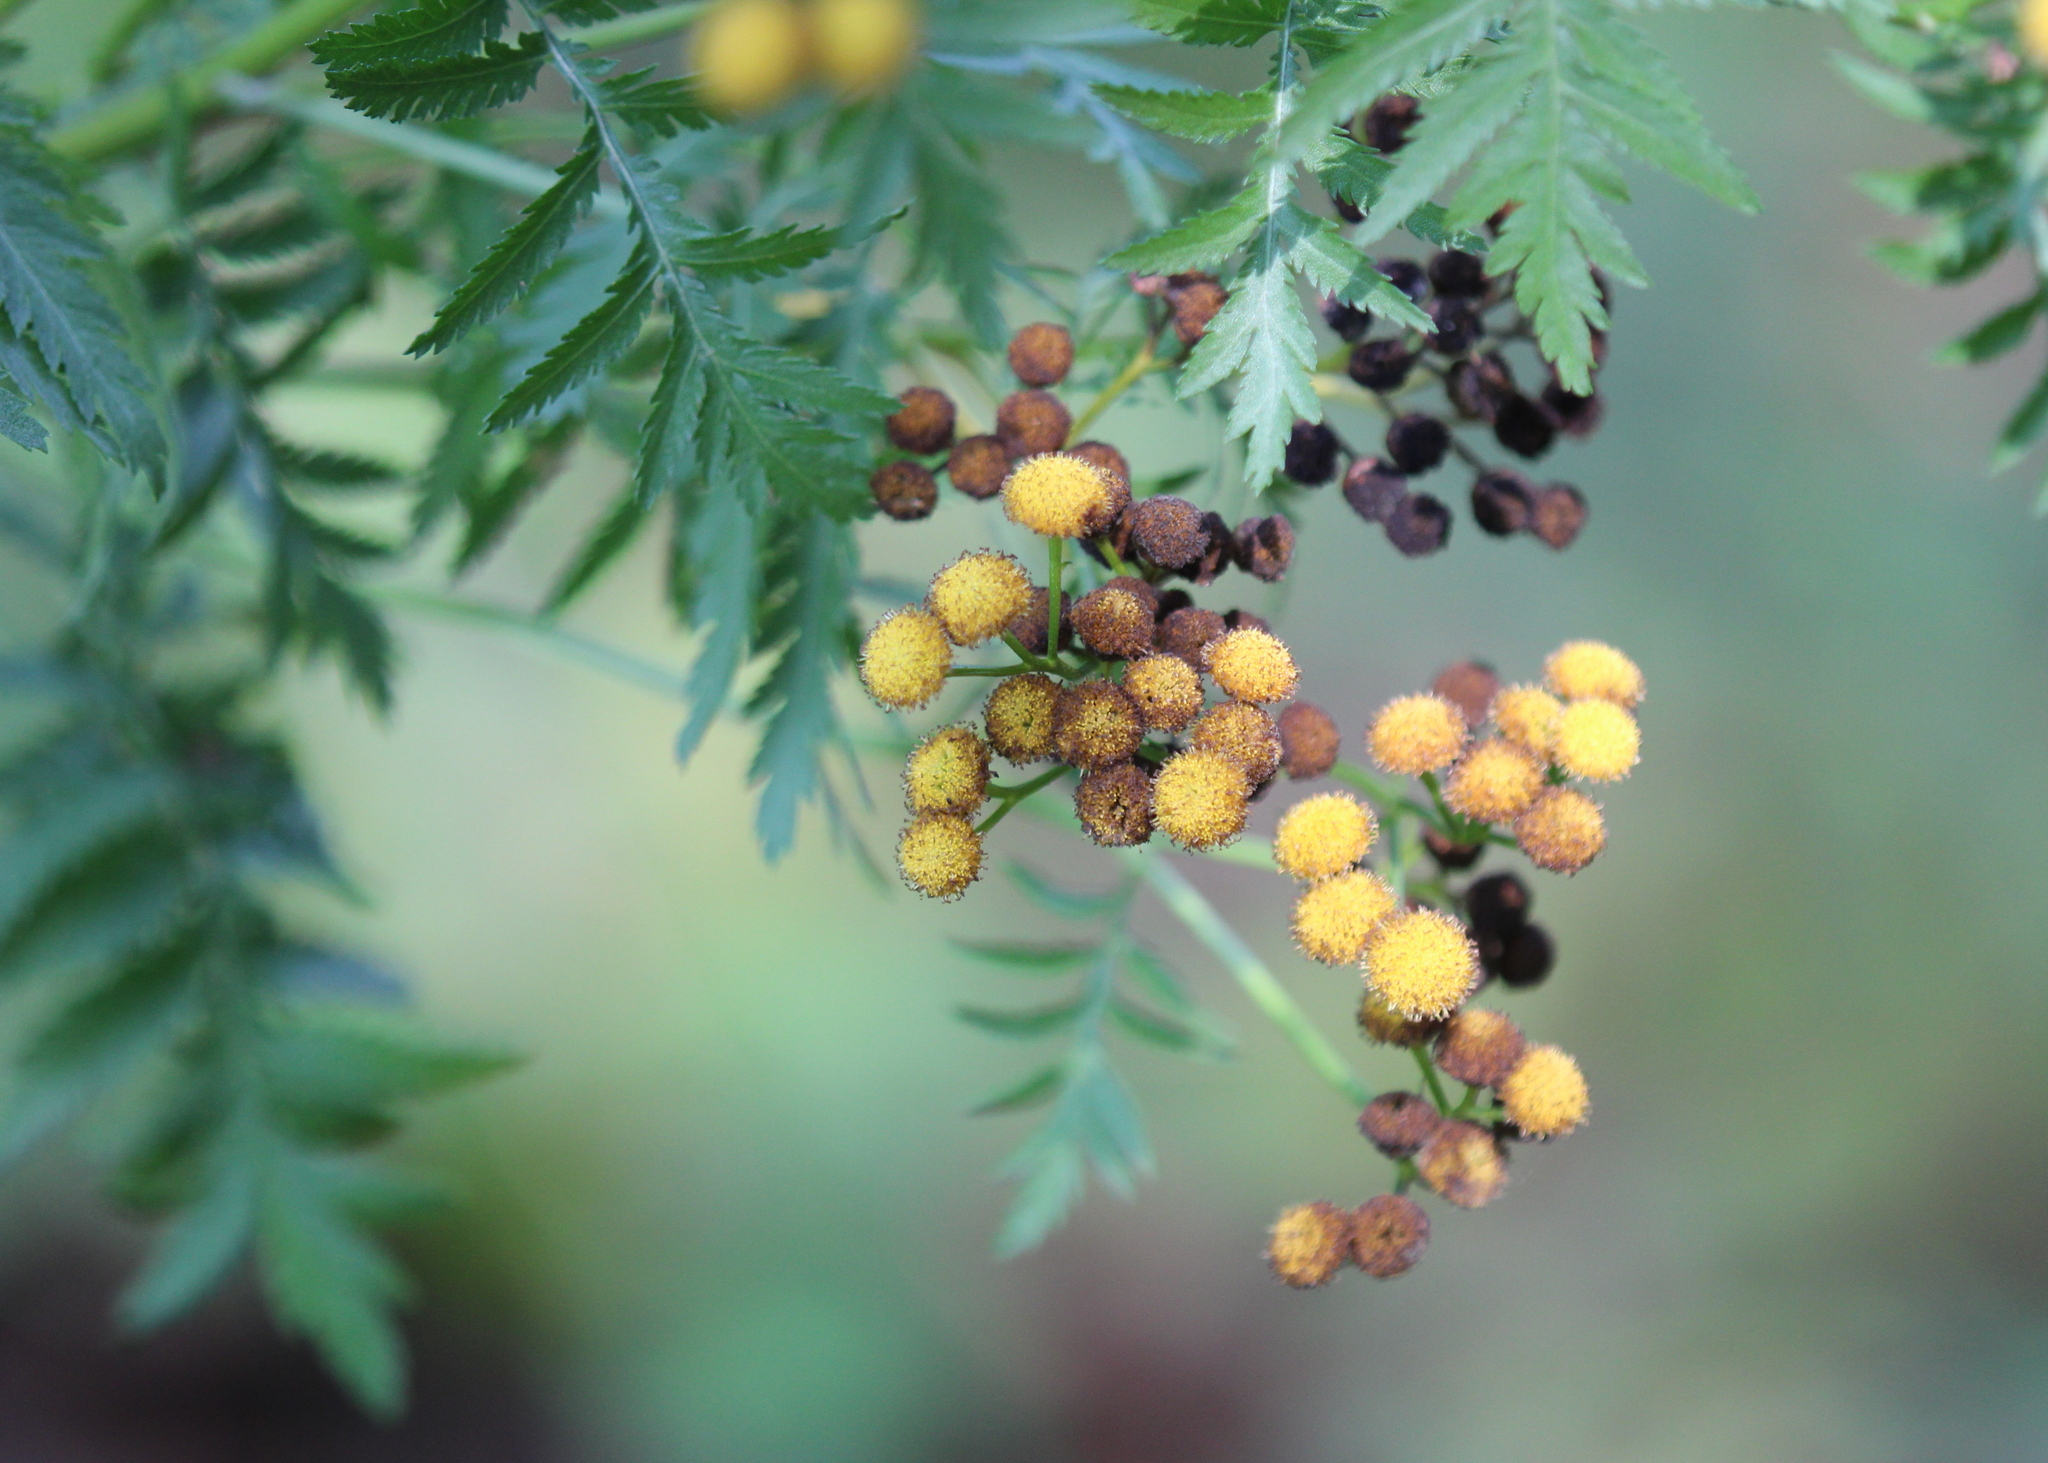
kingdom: Plantae
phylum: Tracheophyta
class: Magnoliopsida
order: Asterales
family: Asteraceae
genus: Tanacetum
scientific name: Tanacetum vulgare
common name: Common tansy
